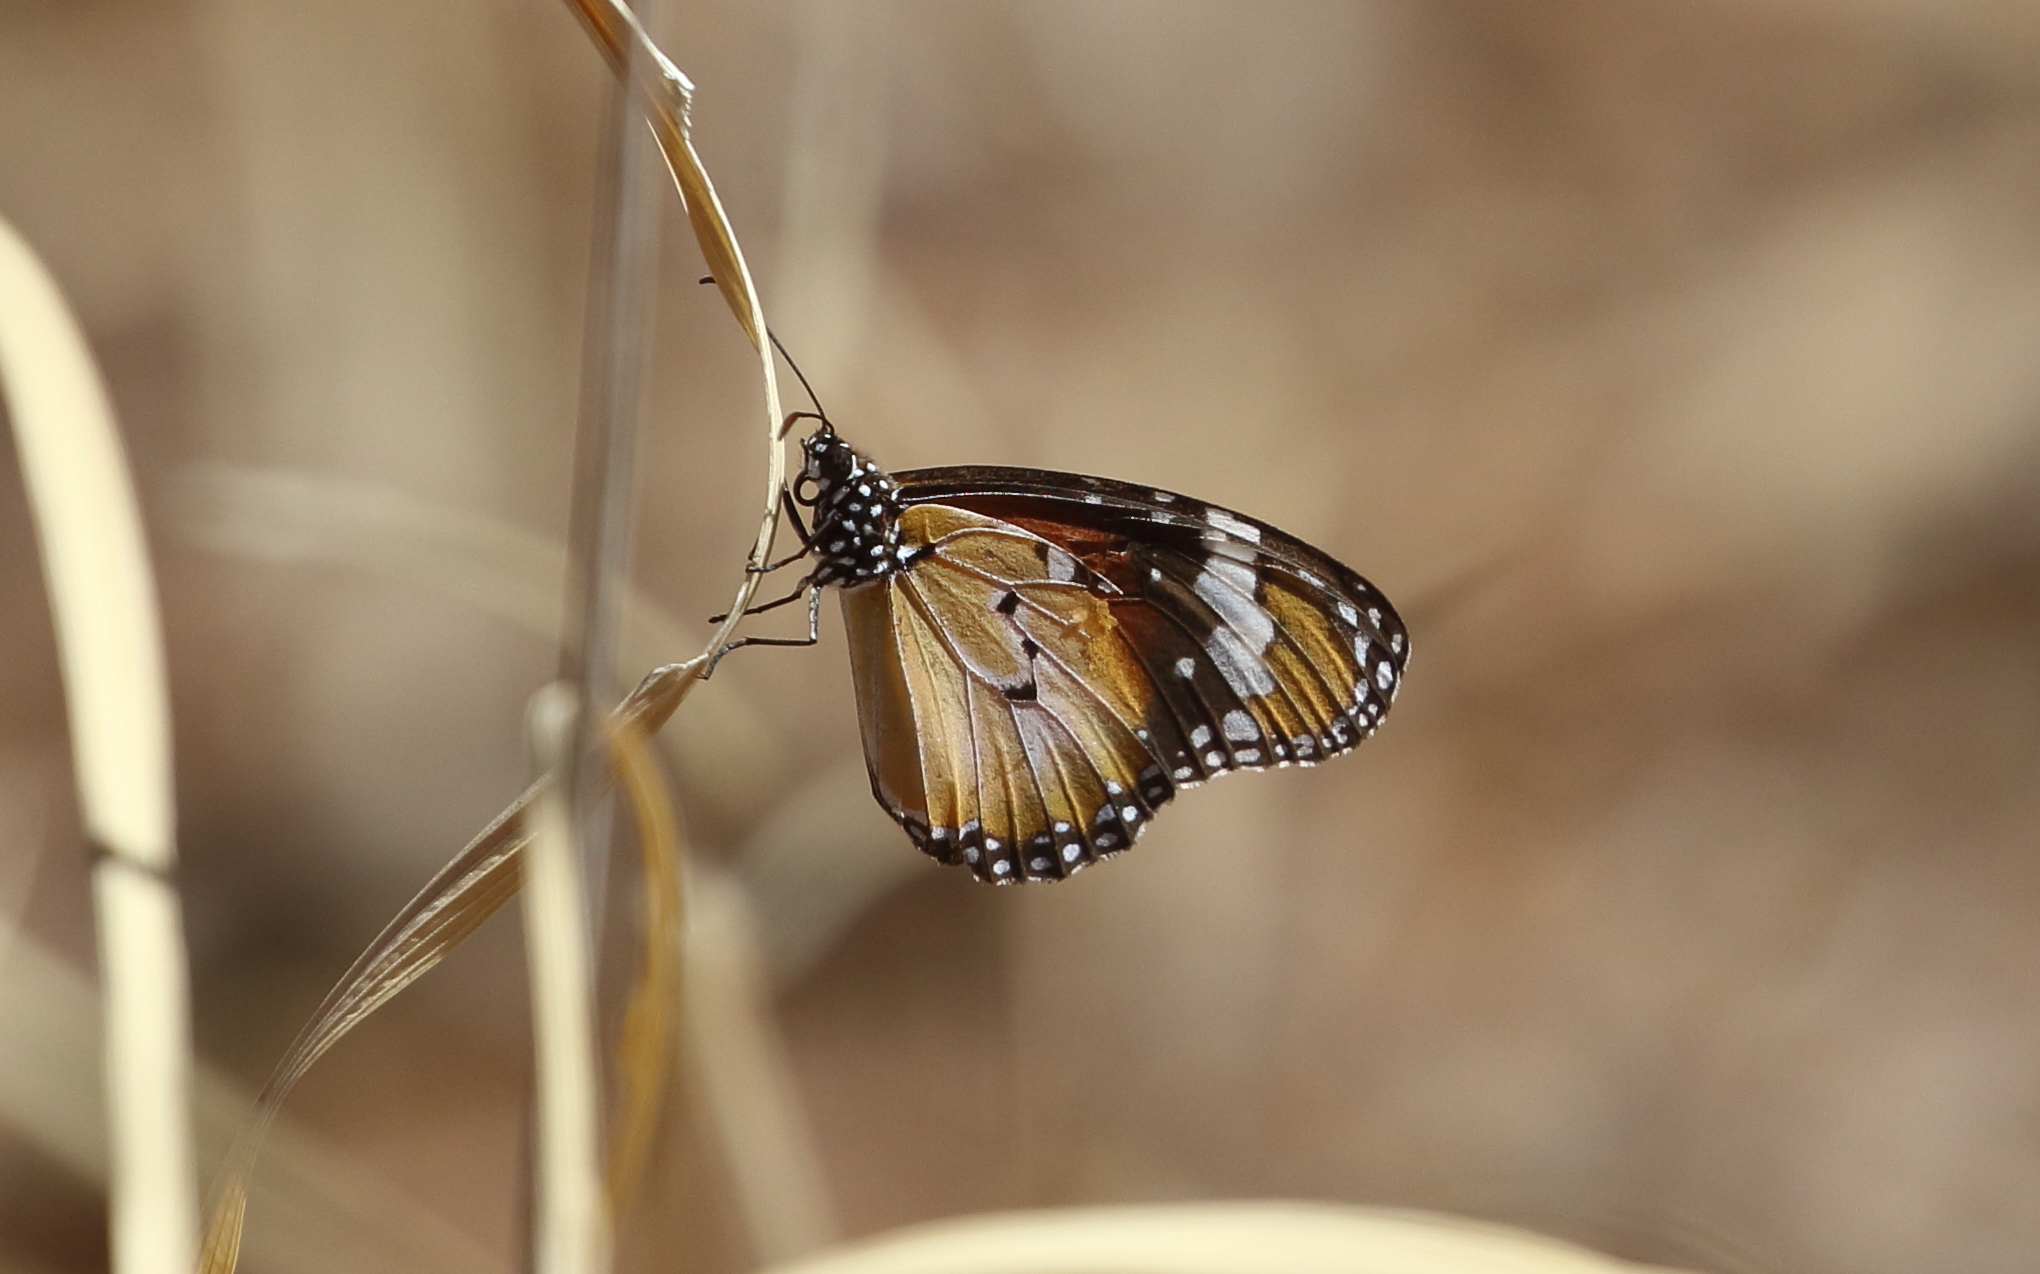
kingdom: Animalia
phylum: Arthropoda
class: Insecta
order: Lepidoptera
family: Nymphalidae
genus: Danaus
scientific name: Danaus chrysippus
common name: Plain tiger
